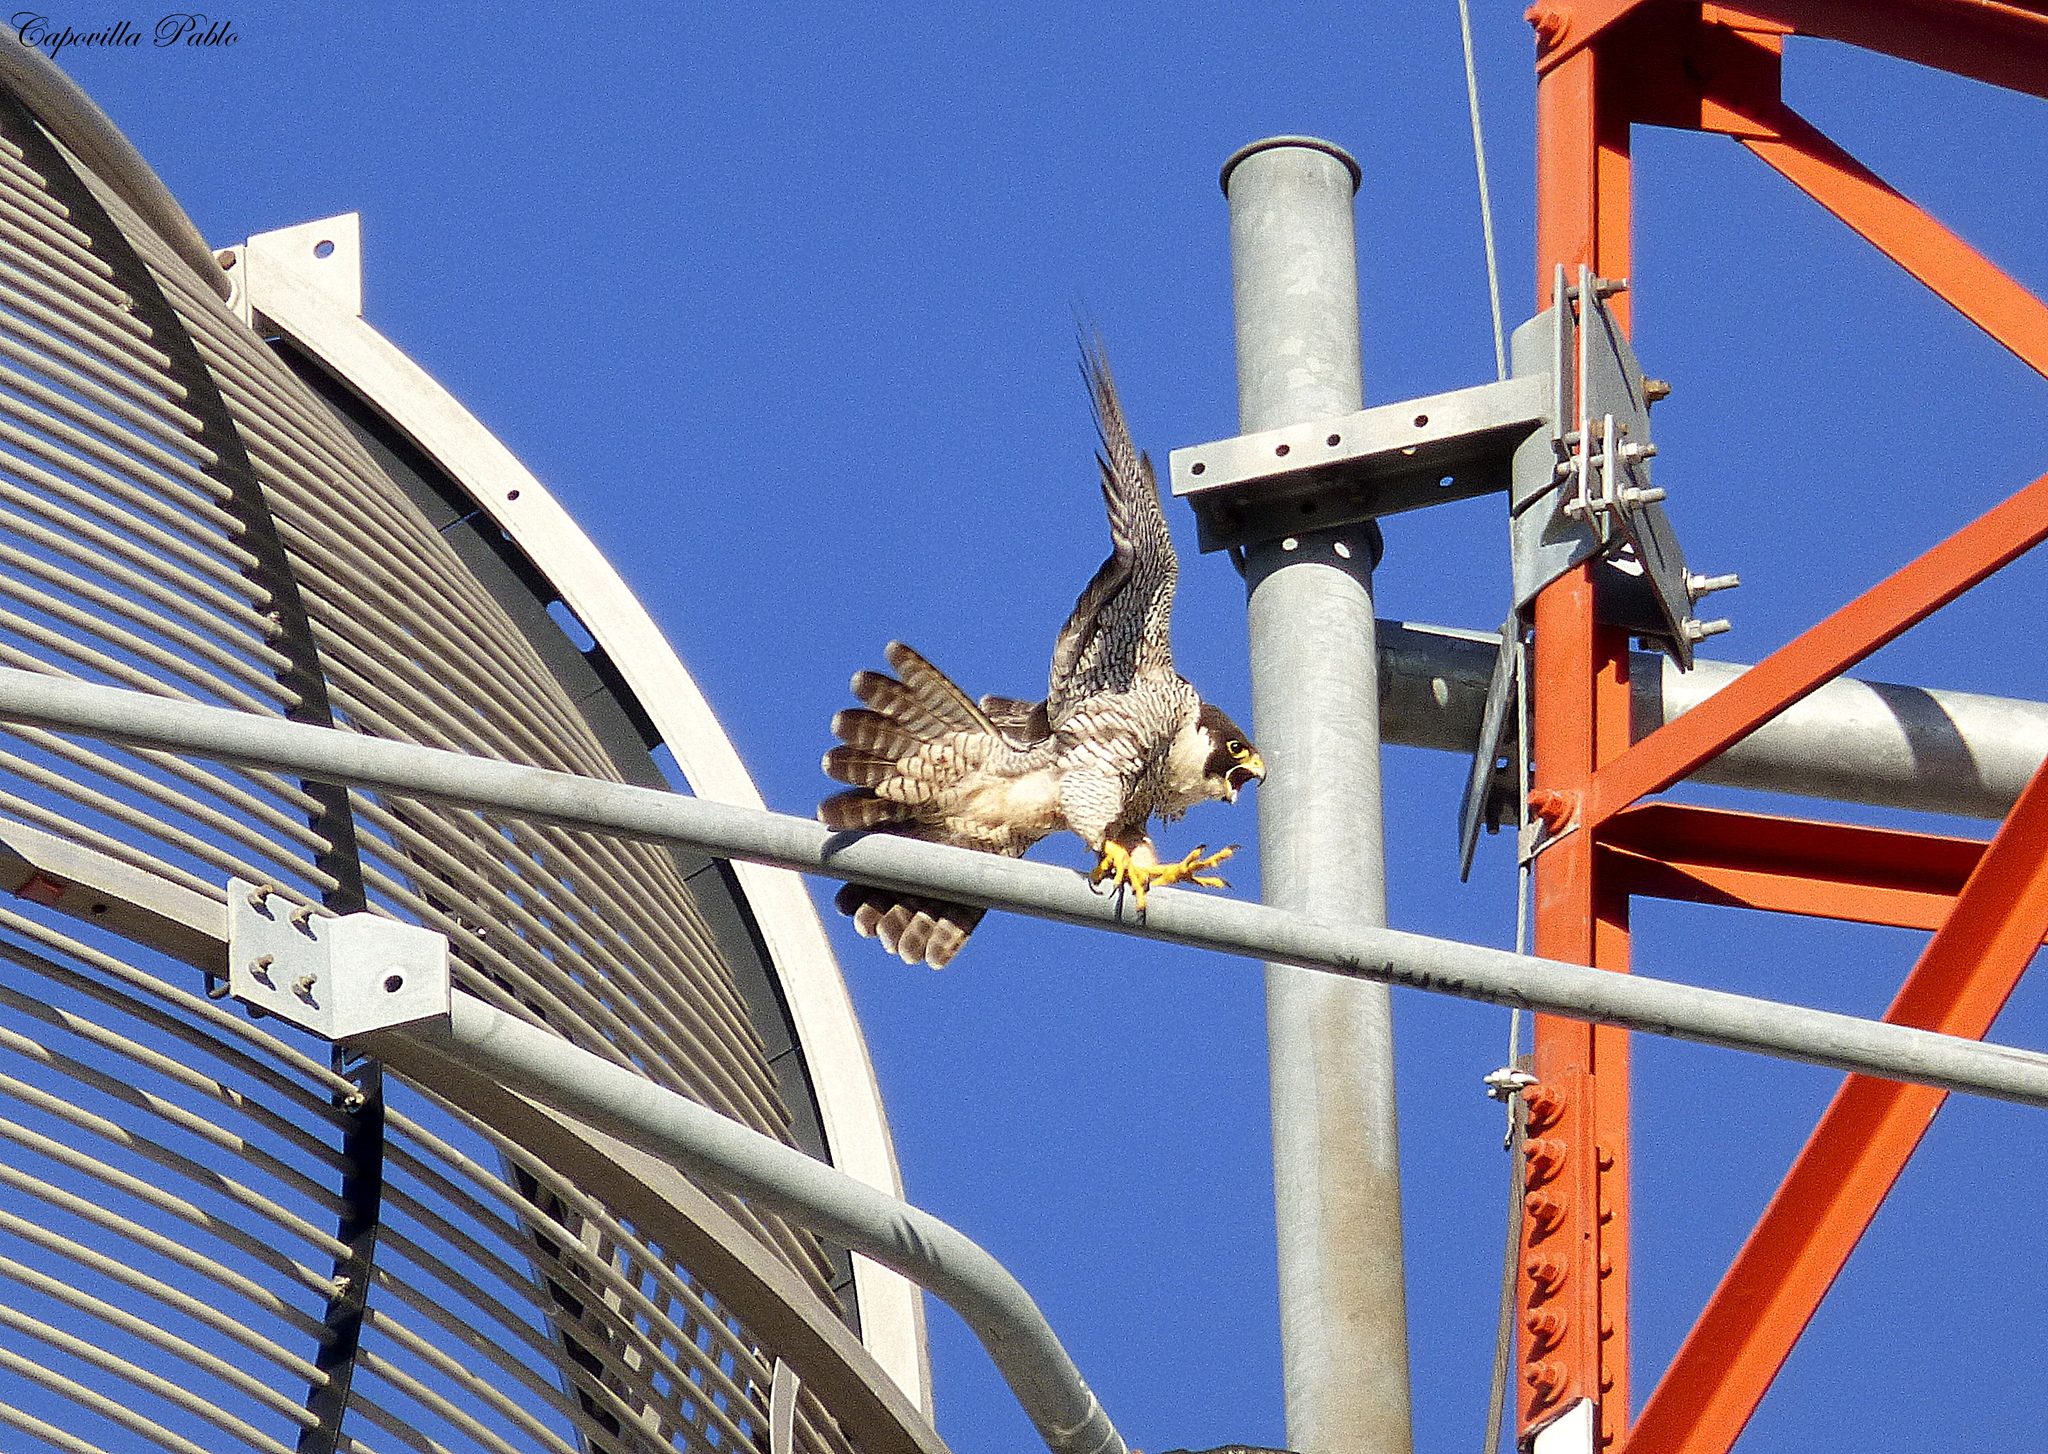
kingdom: Animalia
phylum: Chordata
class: Aves
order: Falconiformes
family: Falconidae
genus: Falco
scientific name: Falco peregrinus
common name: Peregrine falcon
